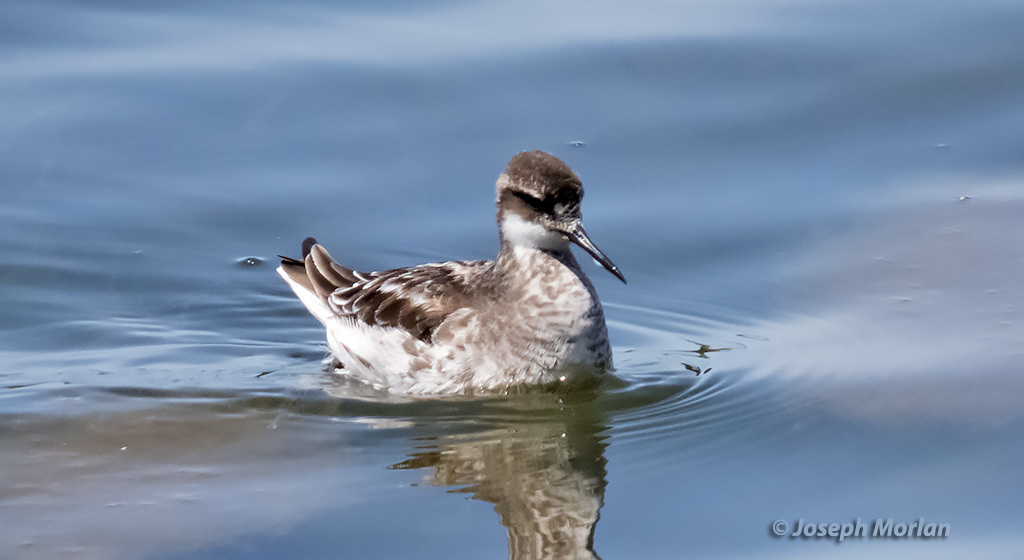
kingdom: Animalia
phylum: Chordata
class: Aves
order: Charadriiformes
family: Scolopacidae
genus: Phalaropus
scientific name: Phalaropus lobatus
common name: Red-necked phalarope
